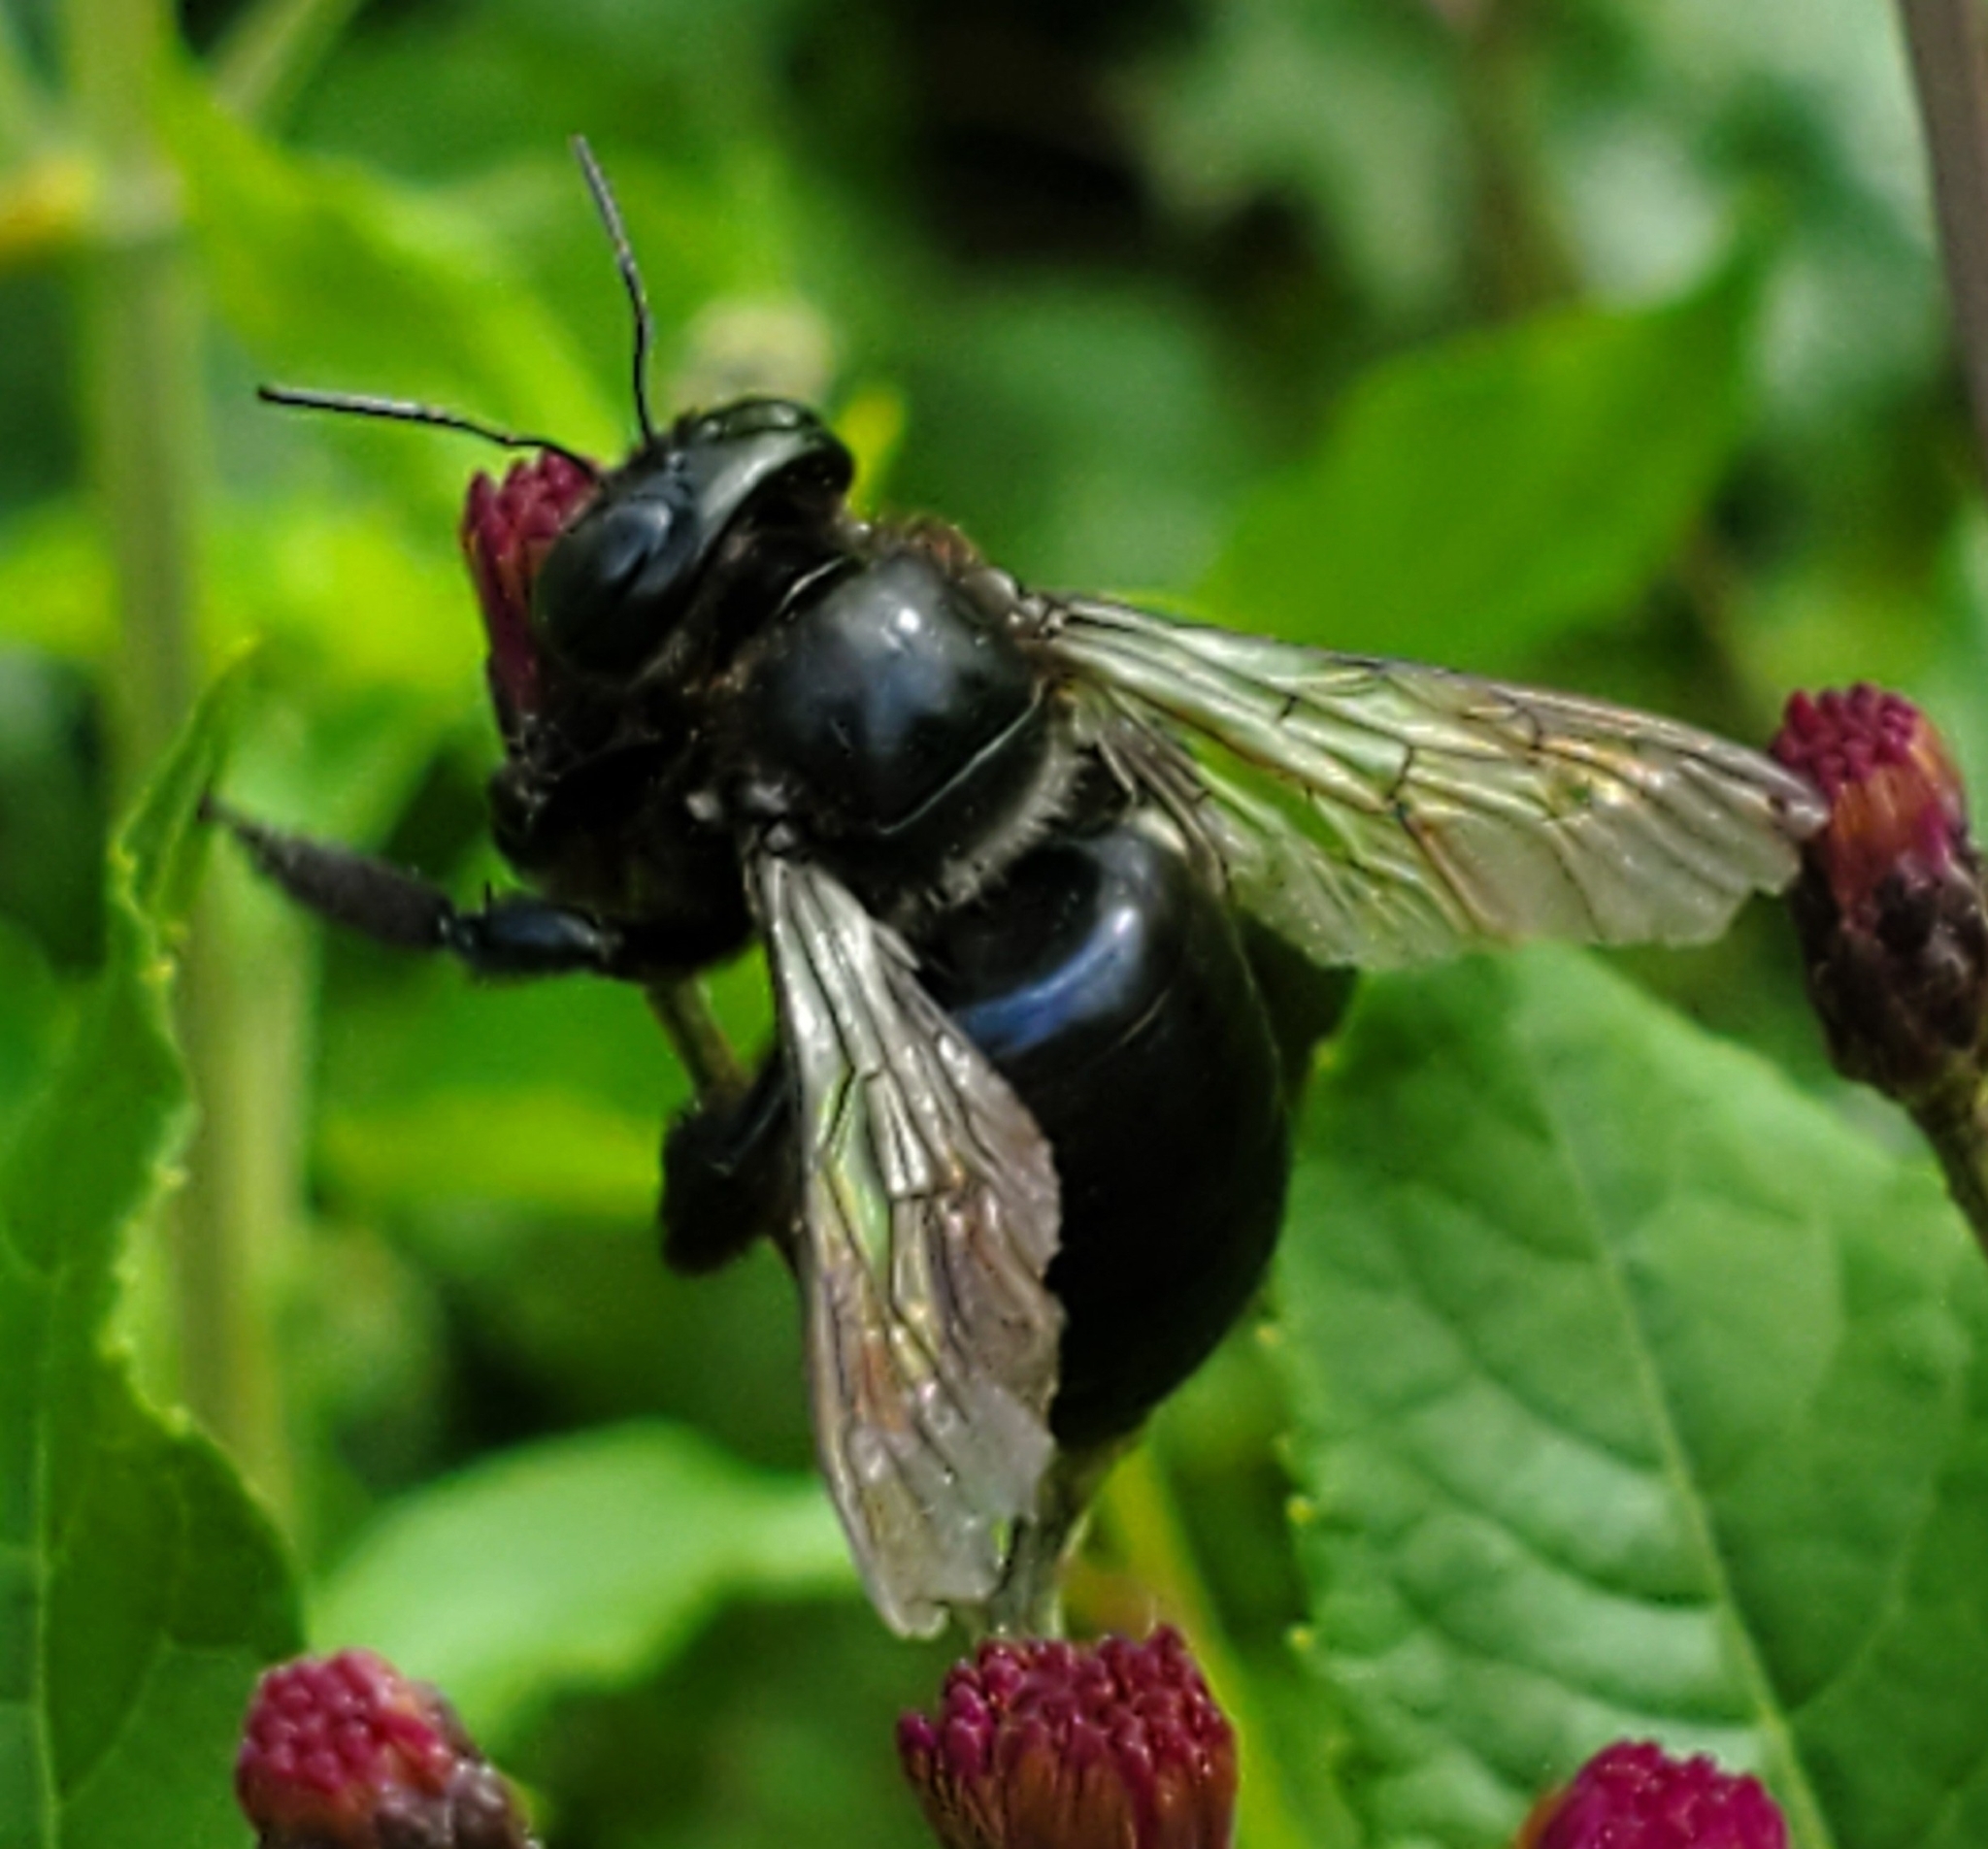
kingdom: Animalia
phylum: Arthropoda
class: Insecta
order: Hymenoptera
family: Apidae
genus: Xylocopa
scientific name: Xylocopa micans
